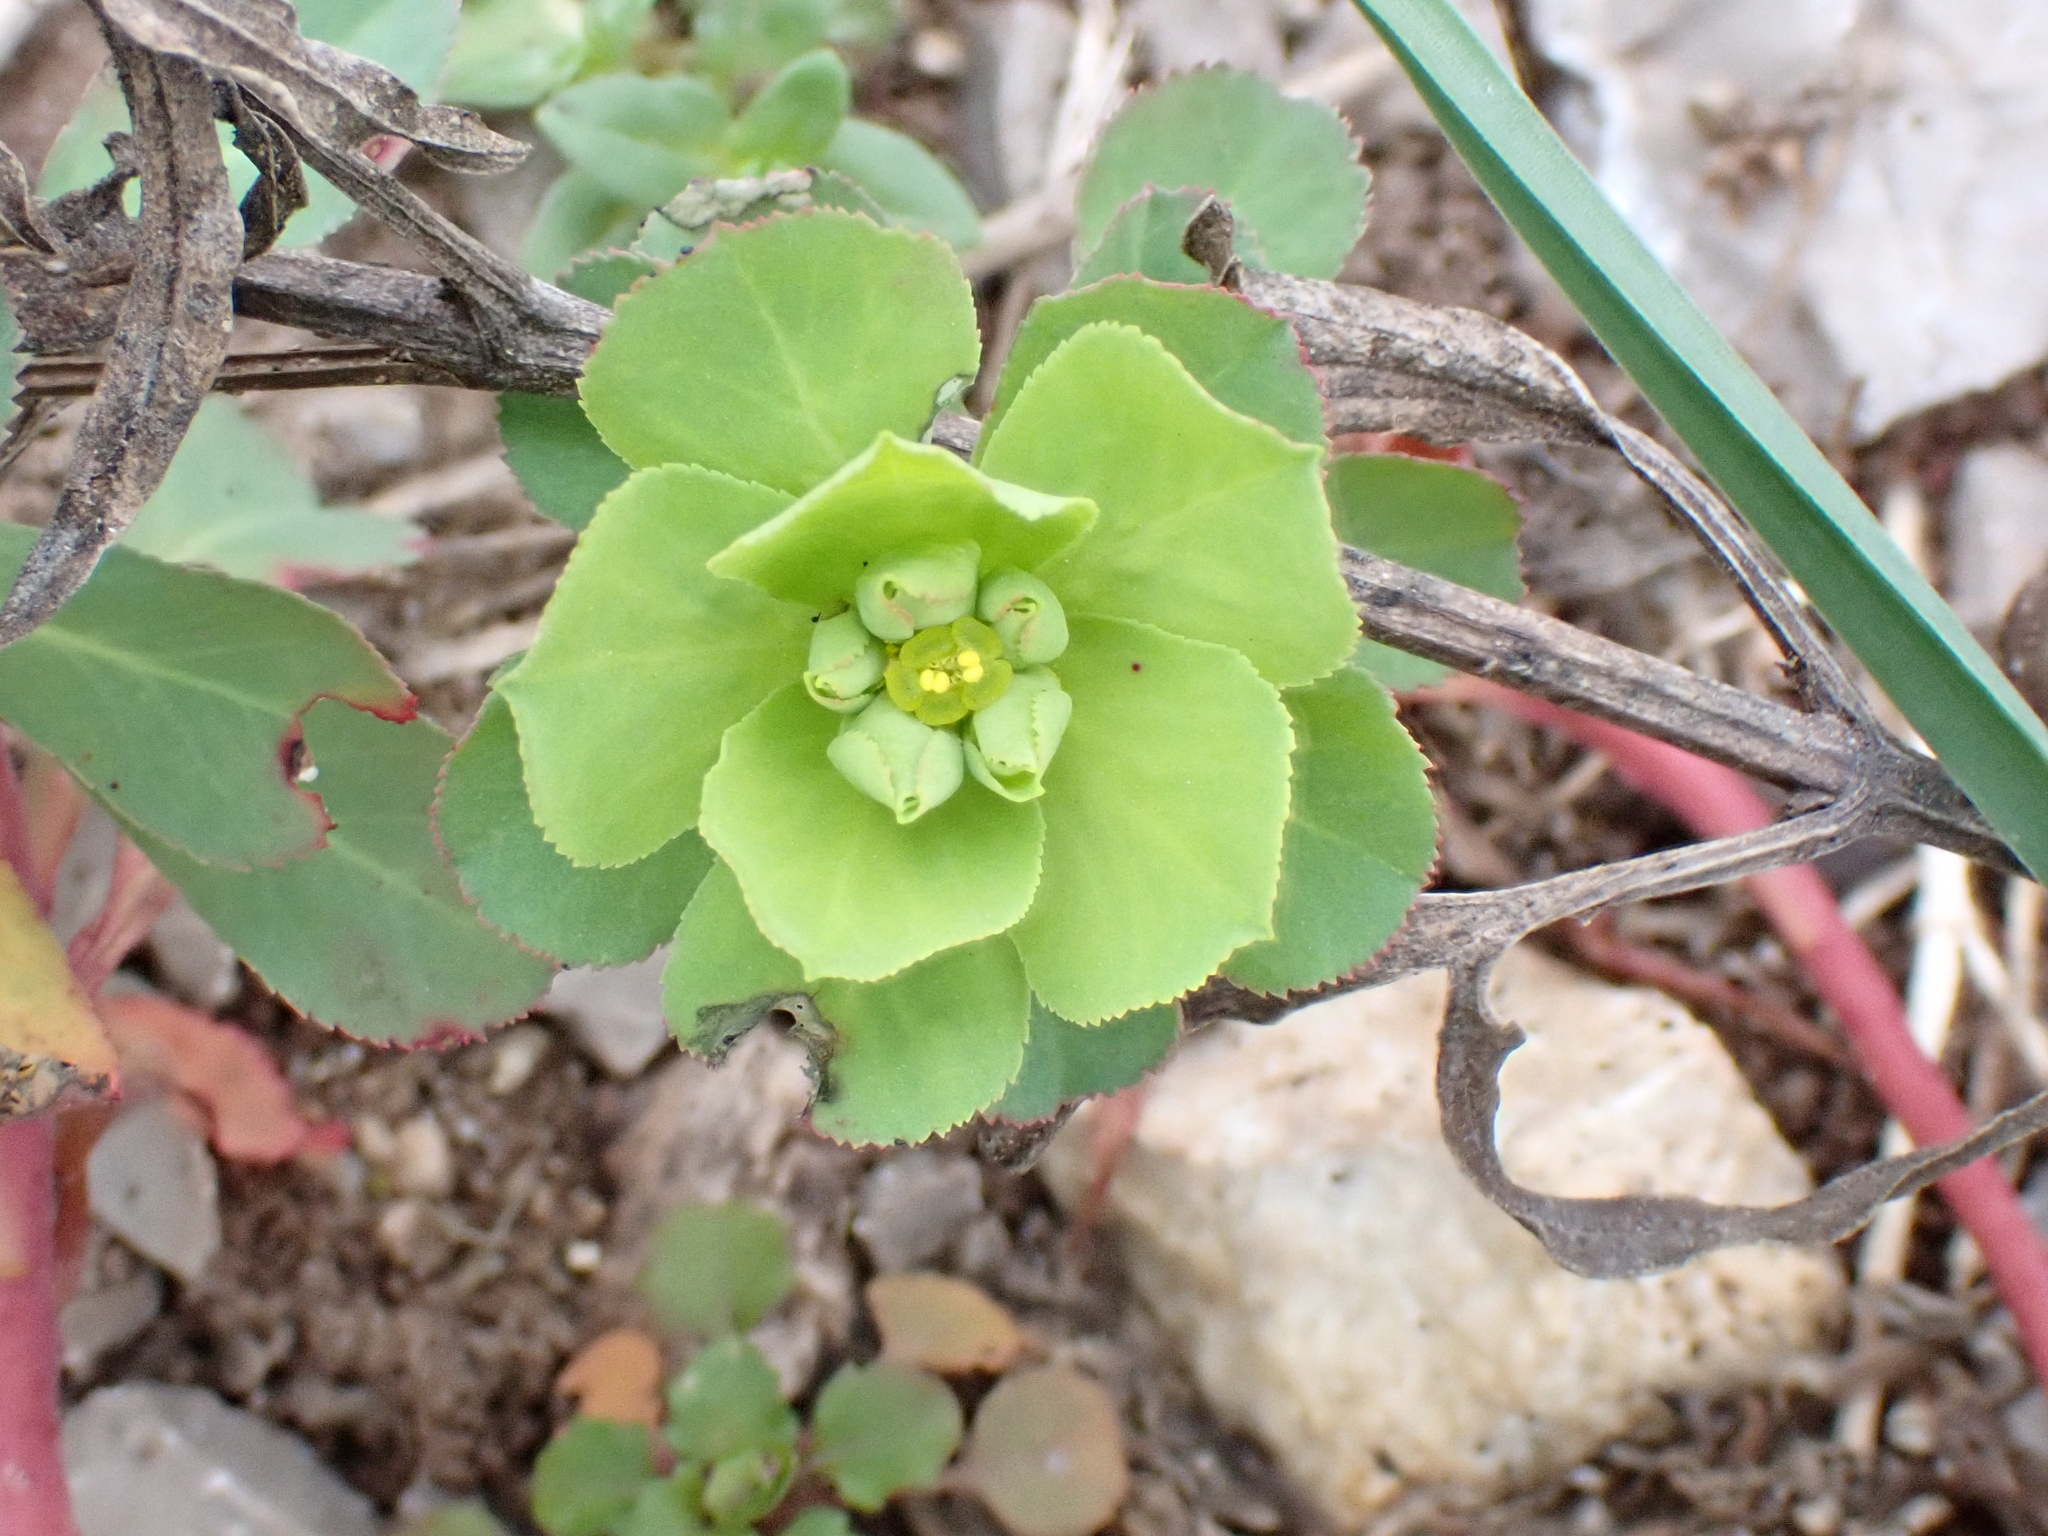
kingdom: Plantae
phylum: Tracheophyta
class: Magnoliopsida
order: Malpighiales
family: Euphorbiaceae
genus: Euphorbia
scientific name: Euphorbia helioscopia
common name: Sun spurge
